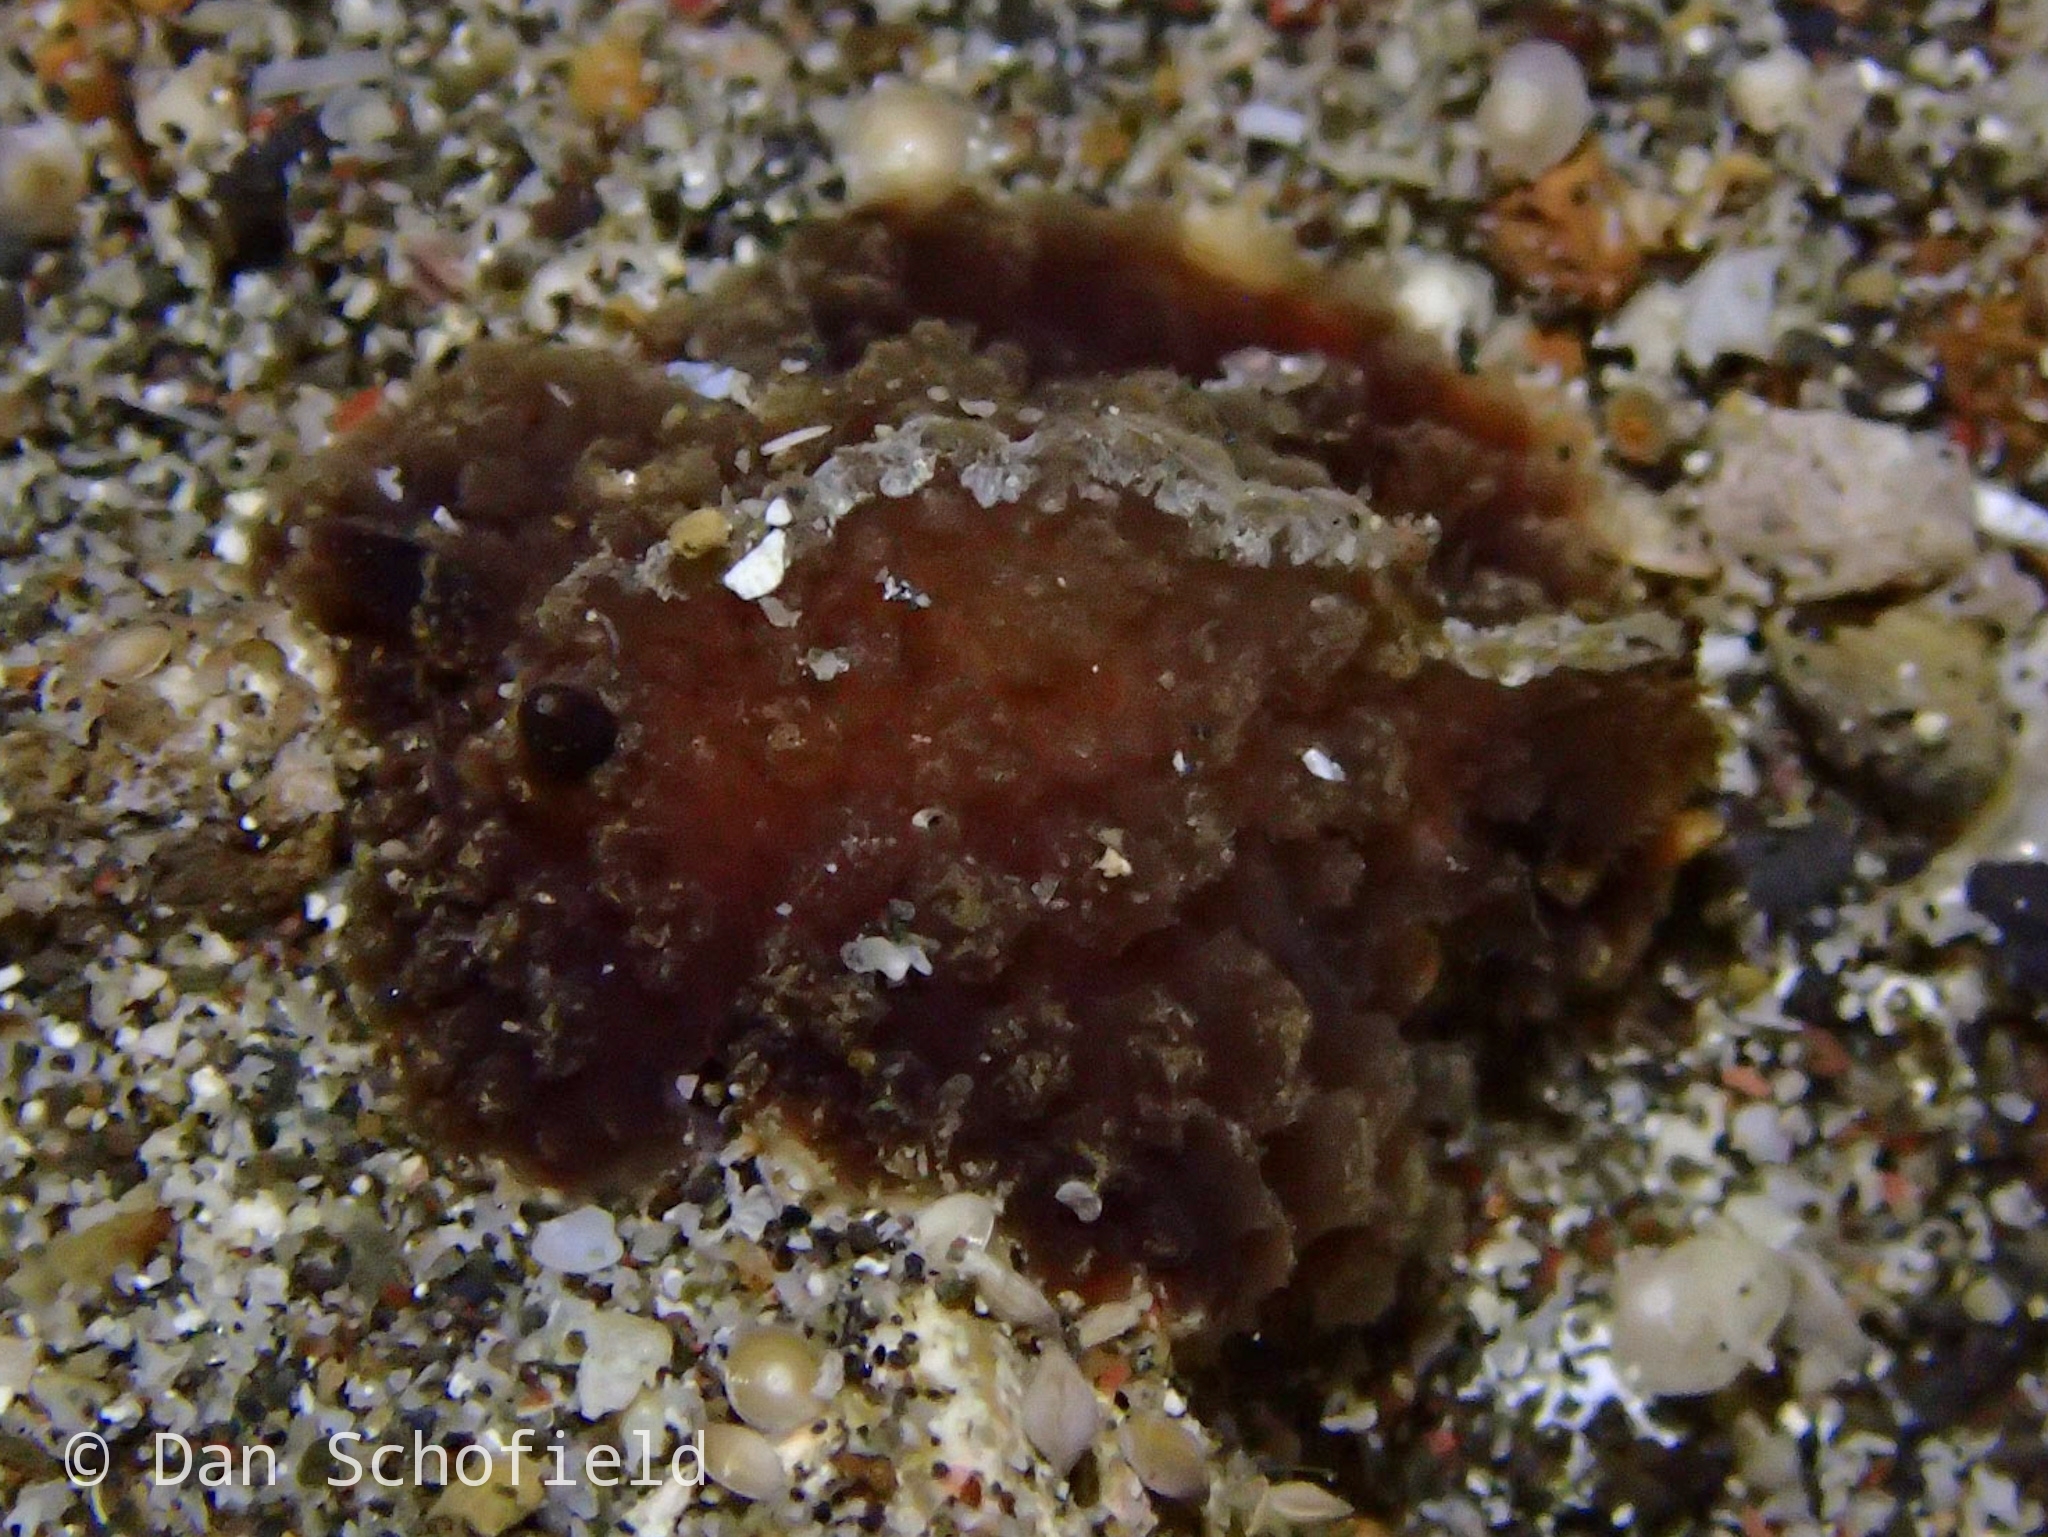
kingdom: Animalia
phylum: Mollusca
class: Gastropoda
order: Nudibranchia
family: Discodorididae
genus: Atagema
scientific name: Atagema intecta
